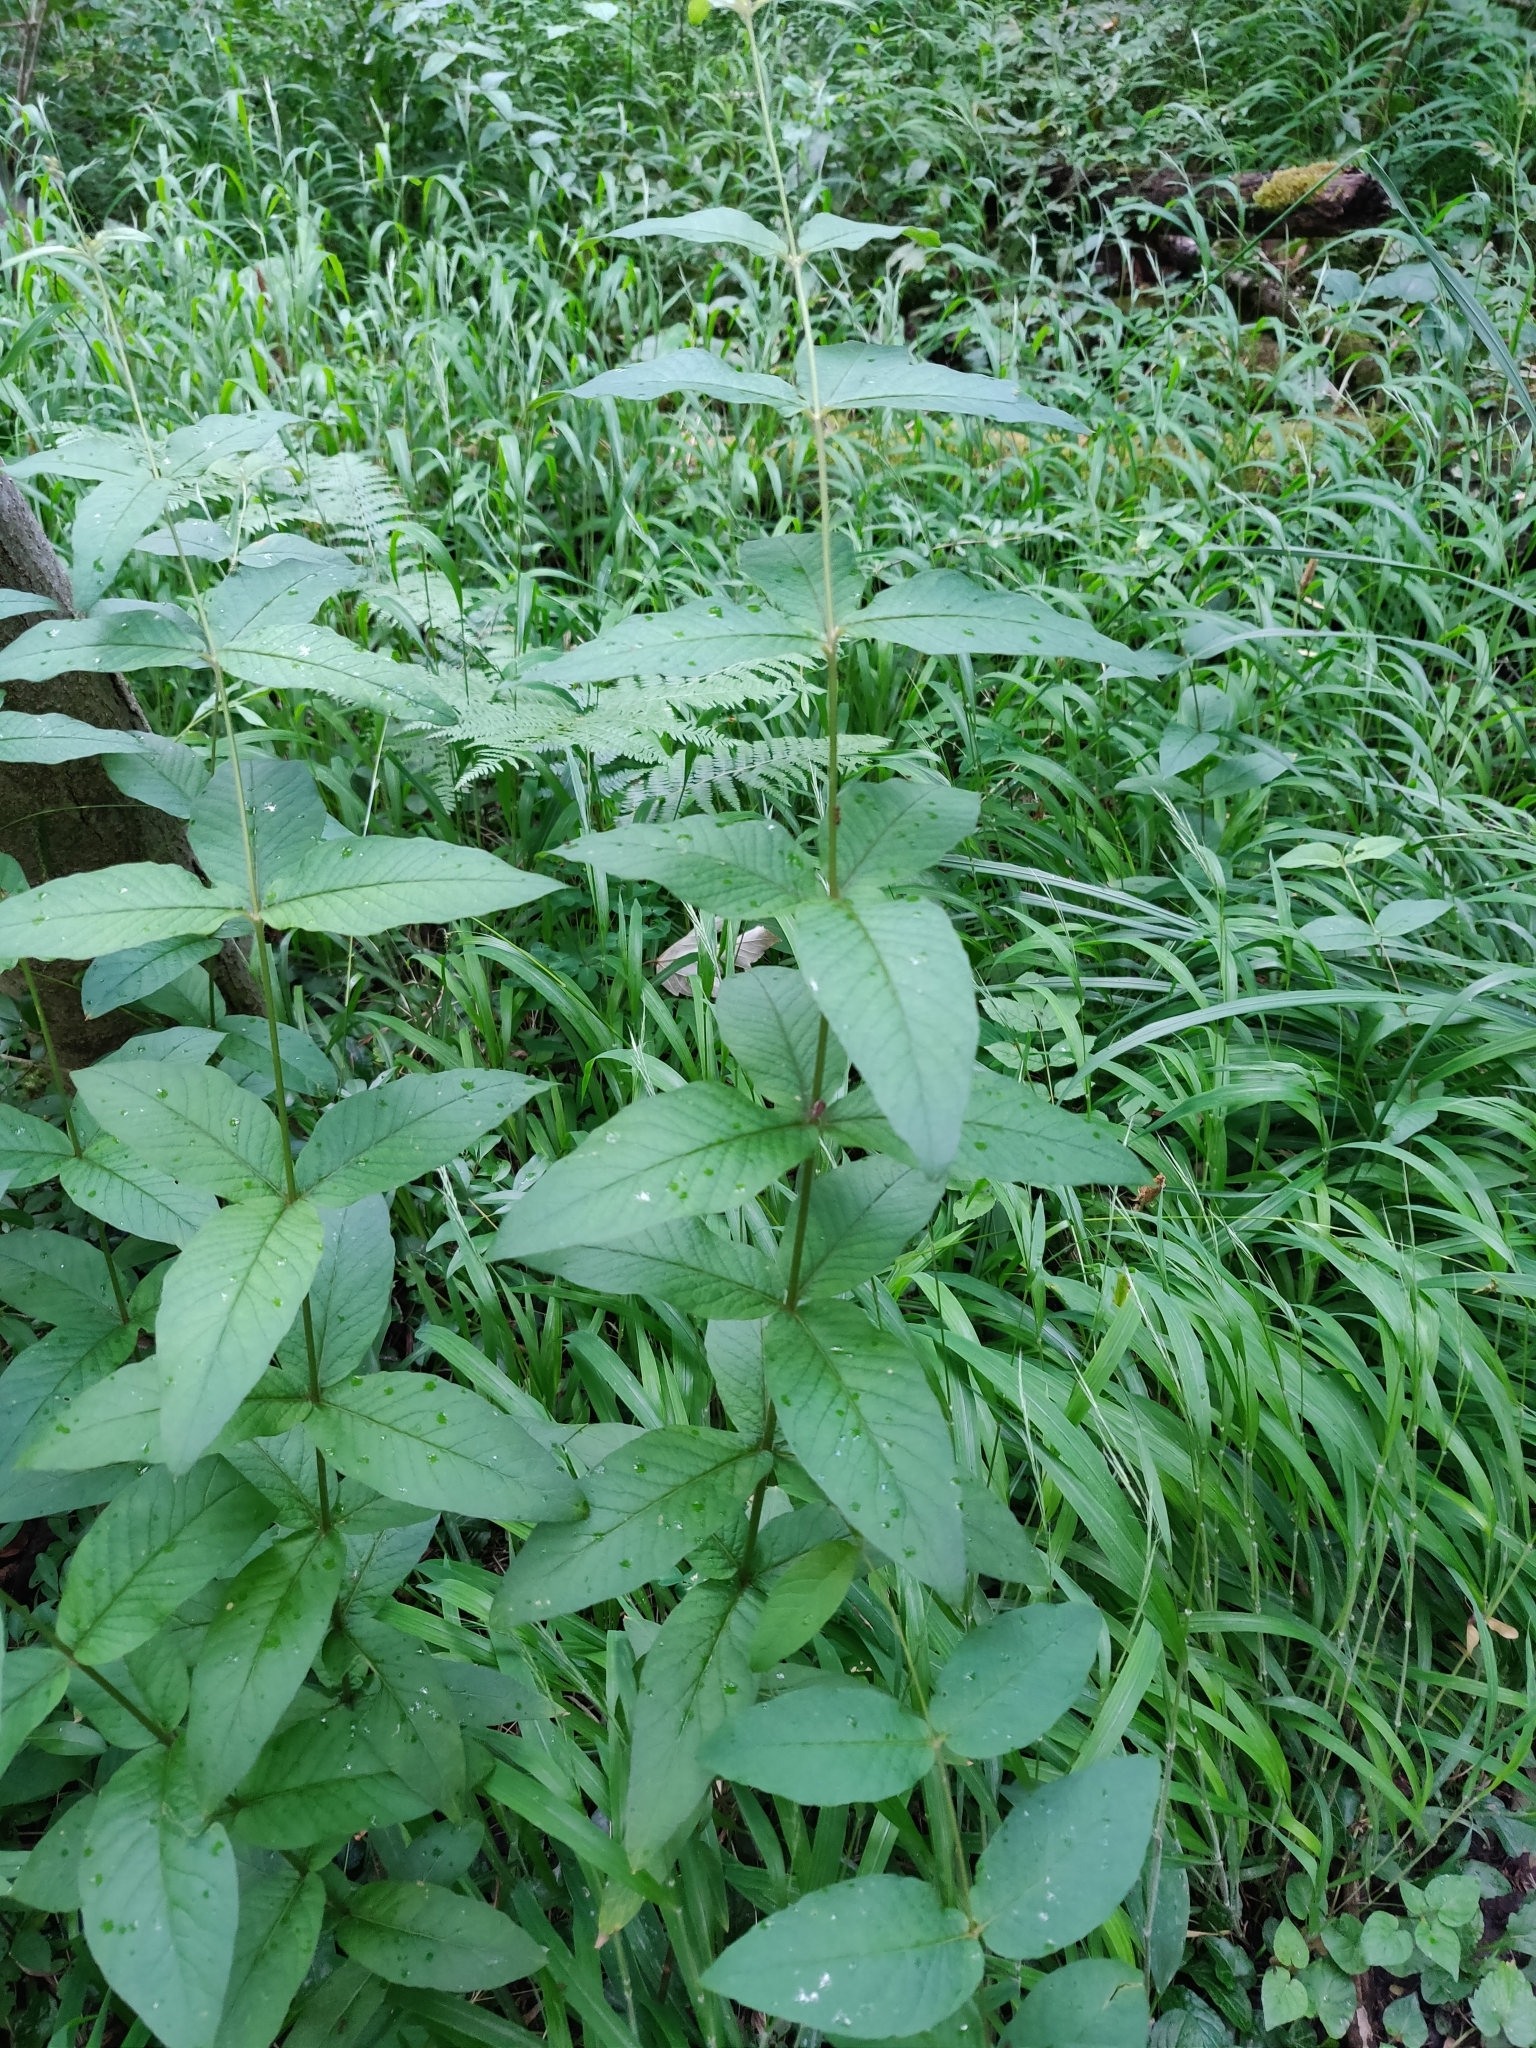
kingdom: Plantae
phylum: Tracheophyta
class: Magnoliopsida
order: Ericales
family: Primulaceae
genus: Lysimachia
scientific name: Lysimachia vulgaris
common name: Yellow loosestrife
